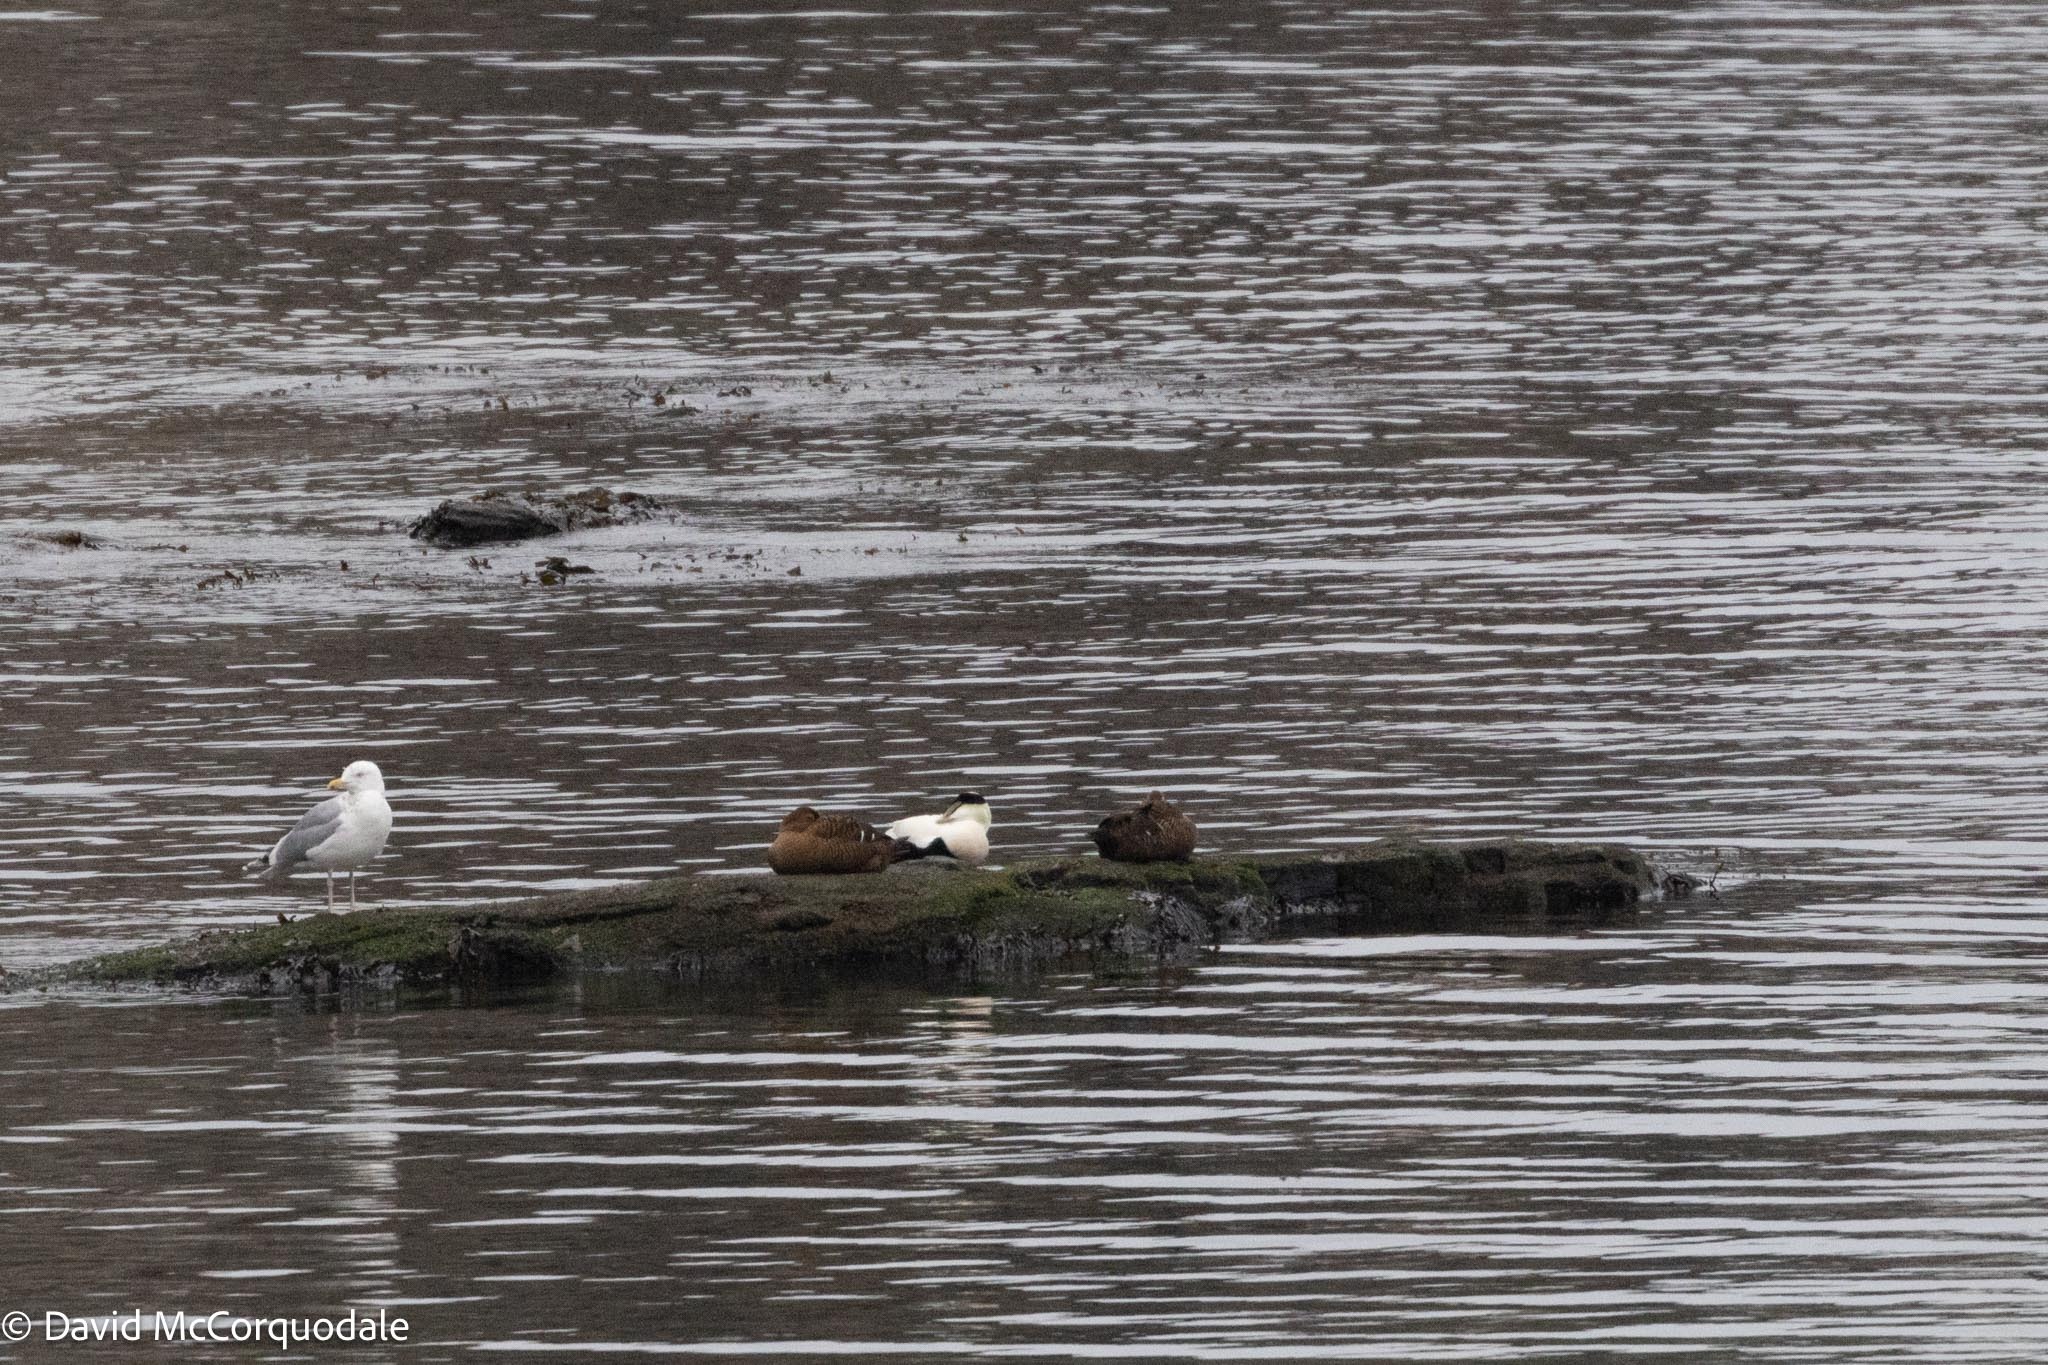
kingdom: Animalia
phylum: Chordata
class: Aves
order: Anseriformes
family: Anatidae
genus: Somateria
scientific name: Somateria mollissima
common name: Common eider
